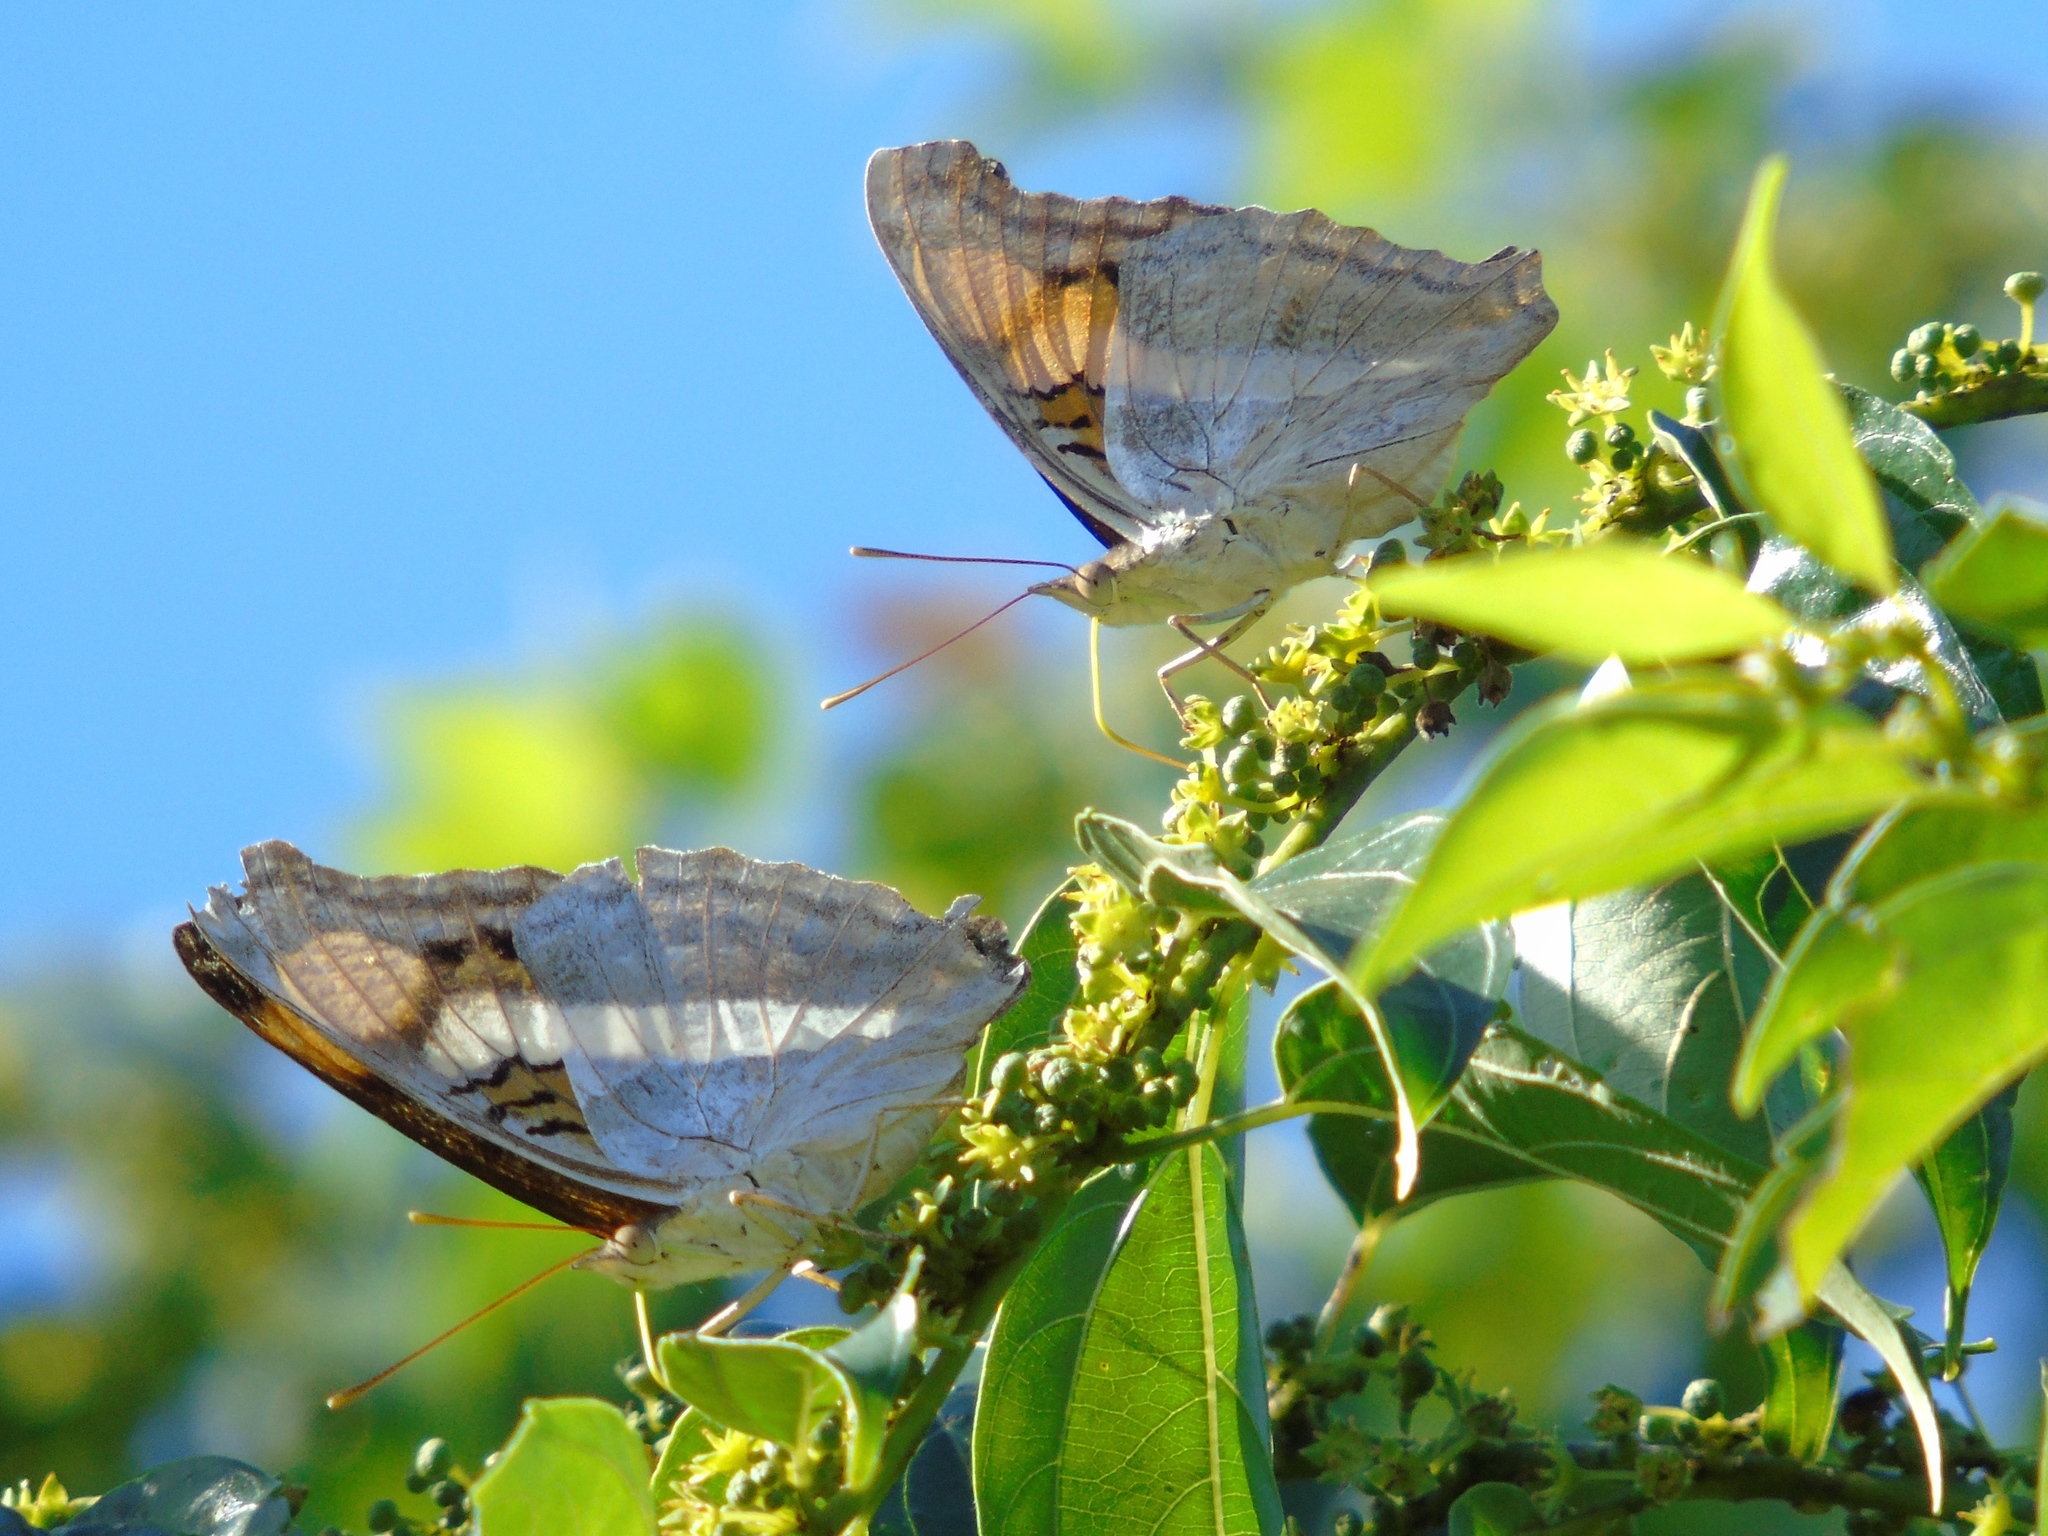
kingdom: Animalia
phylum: Arthropoda
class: Insecta
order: Lepidoptera
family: Nymphalidae
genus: Doxocopa
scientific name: Doxocopa laure
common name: Silver emperor
